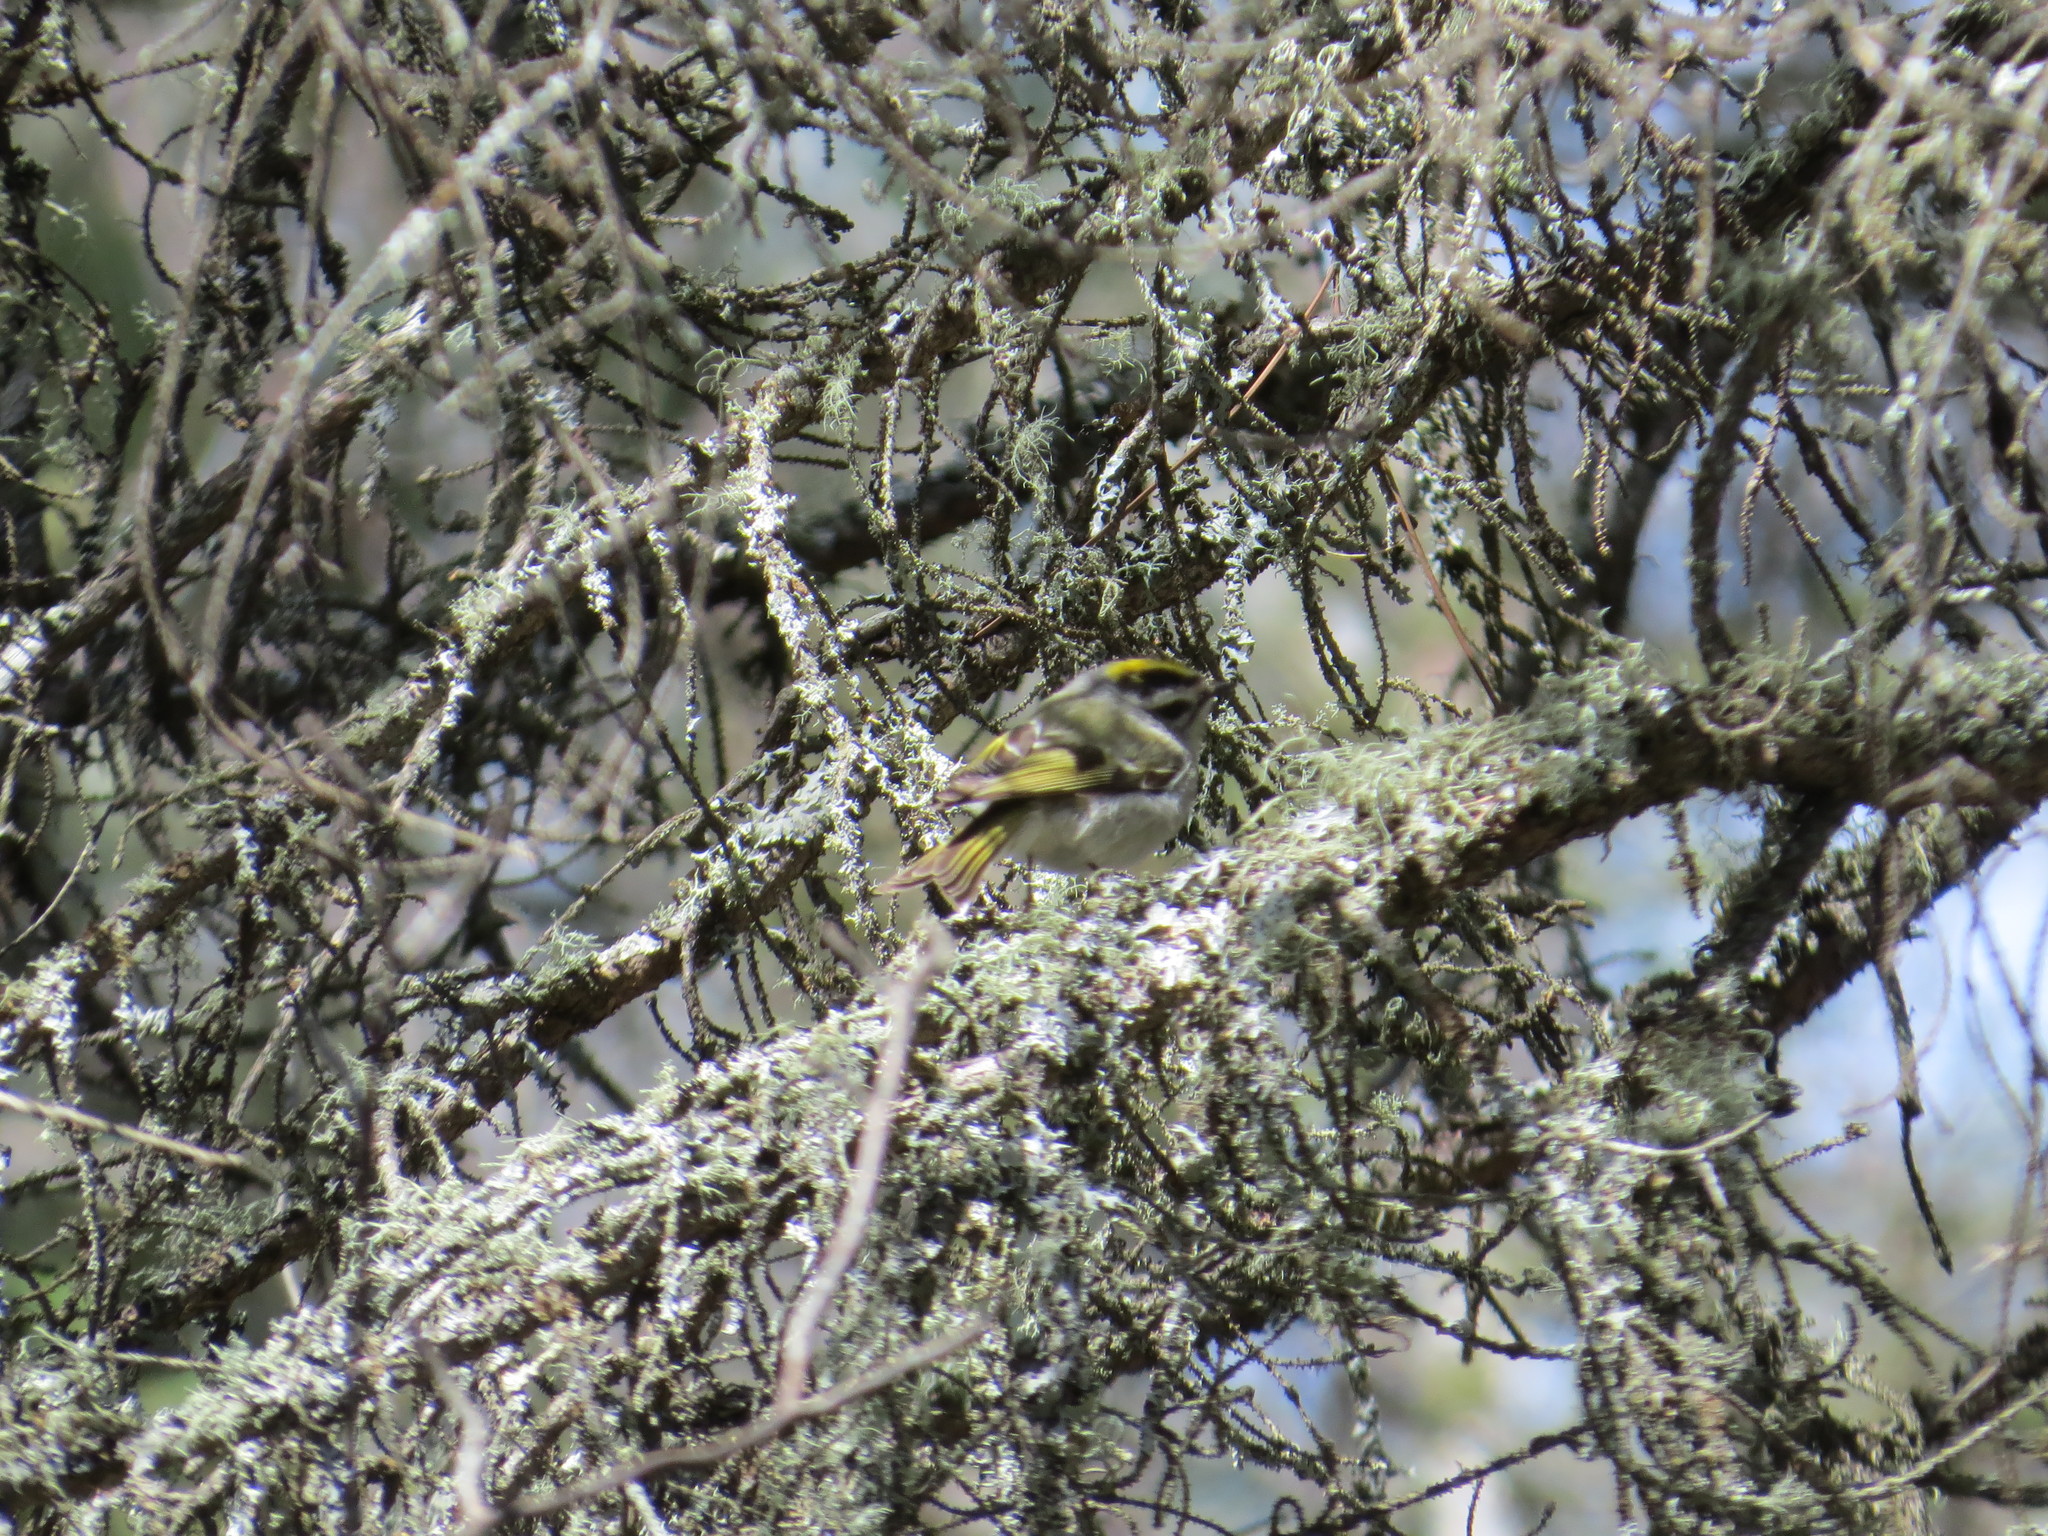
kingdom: Animalia
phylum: Chordata
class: Aves
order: Passeriformes
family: Regulidae
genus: Regulus
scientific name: Regulus satrapa
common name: Golden-crowned kinglet
